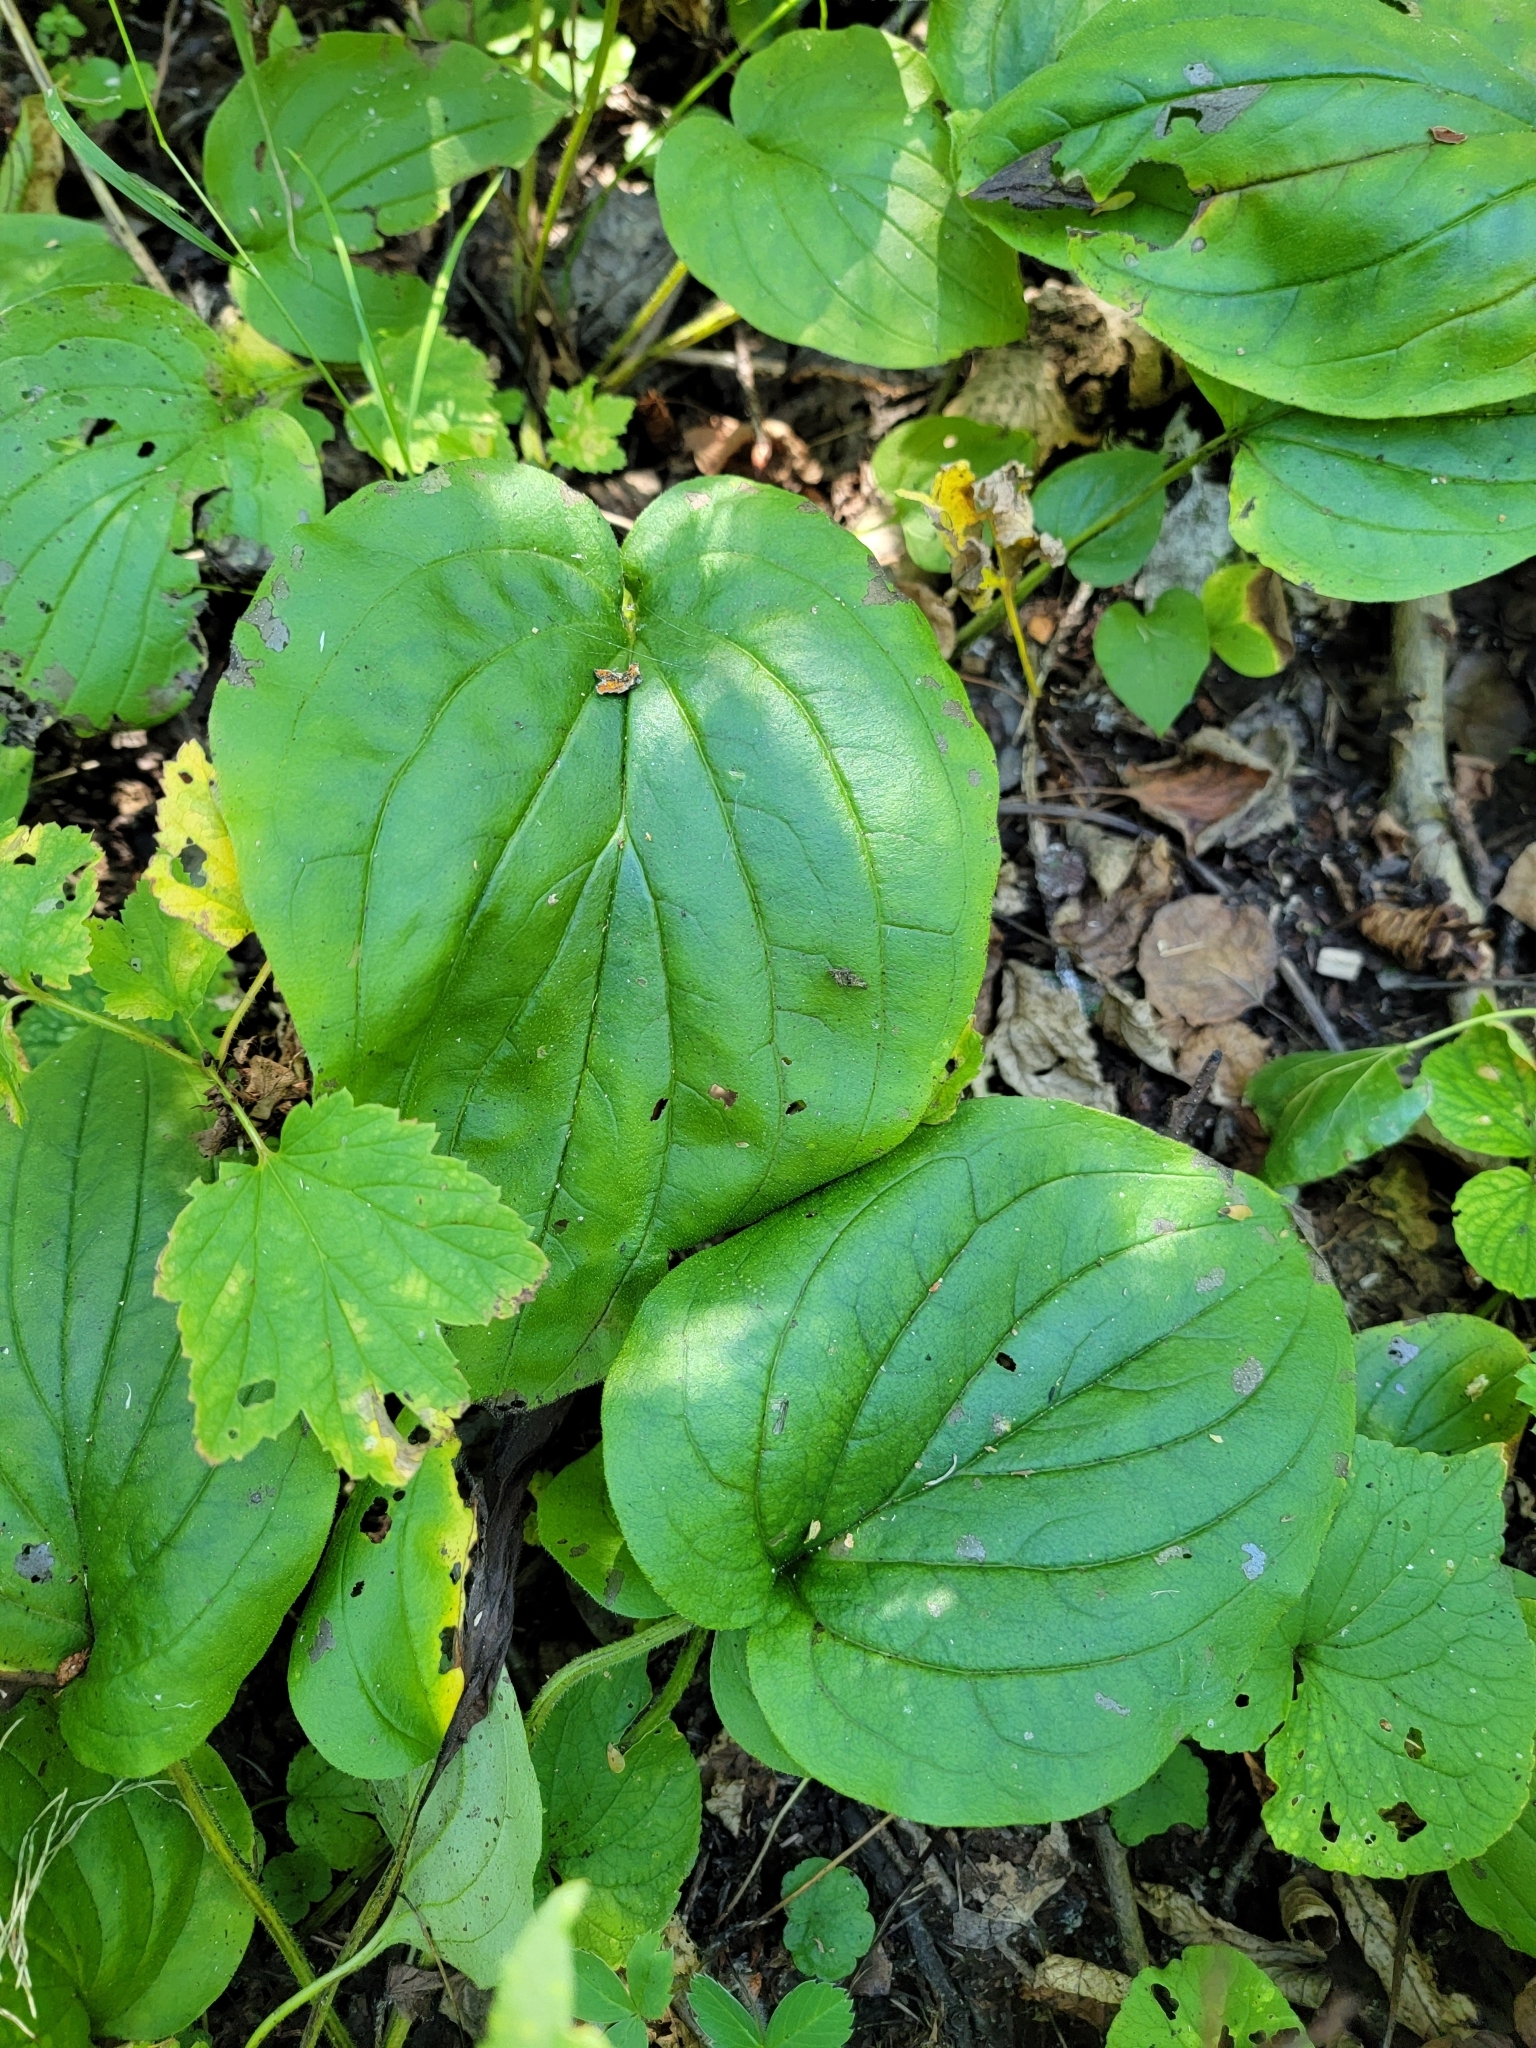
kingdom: Plantae
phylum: Tracheophyta
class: Magnoliopsida
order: Boraginales
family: Boraginaceae
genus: Mertensia
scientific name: Mertensia paniculata
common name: Panicled bluebells
